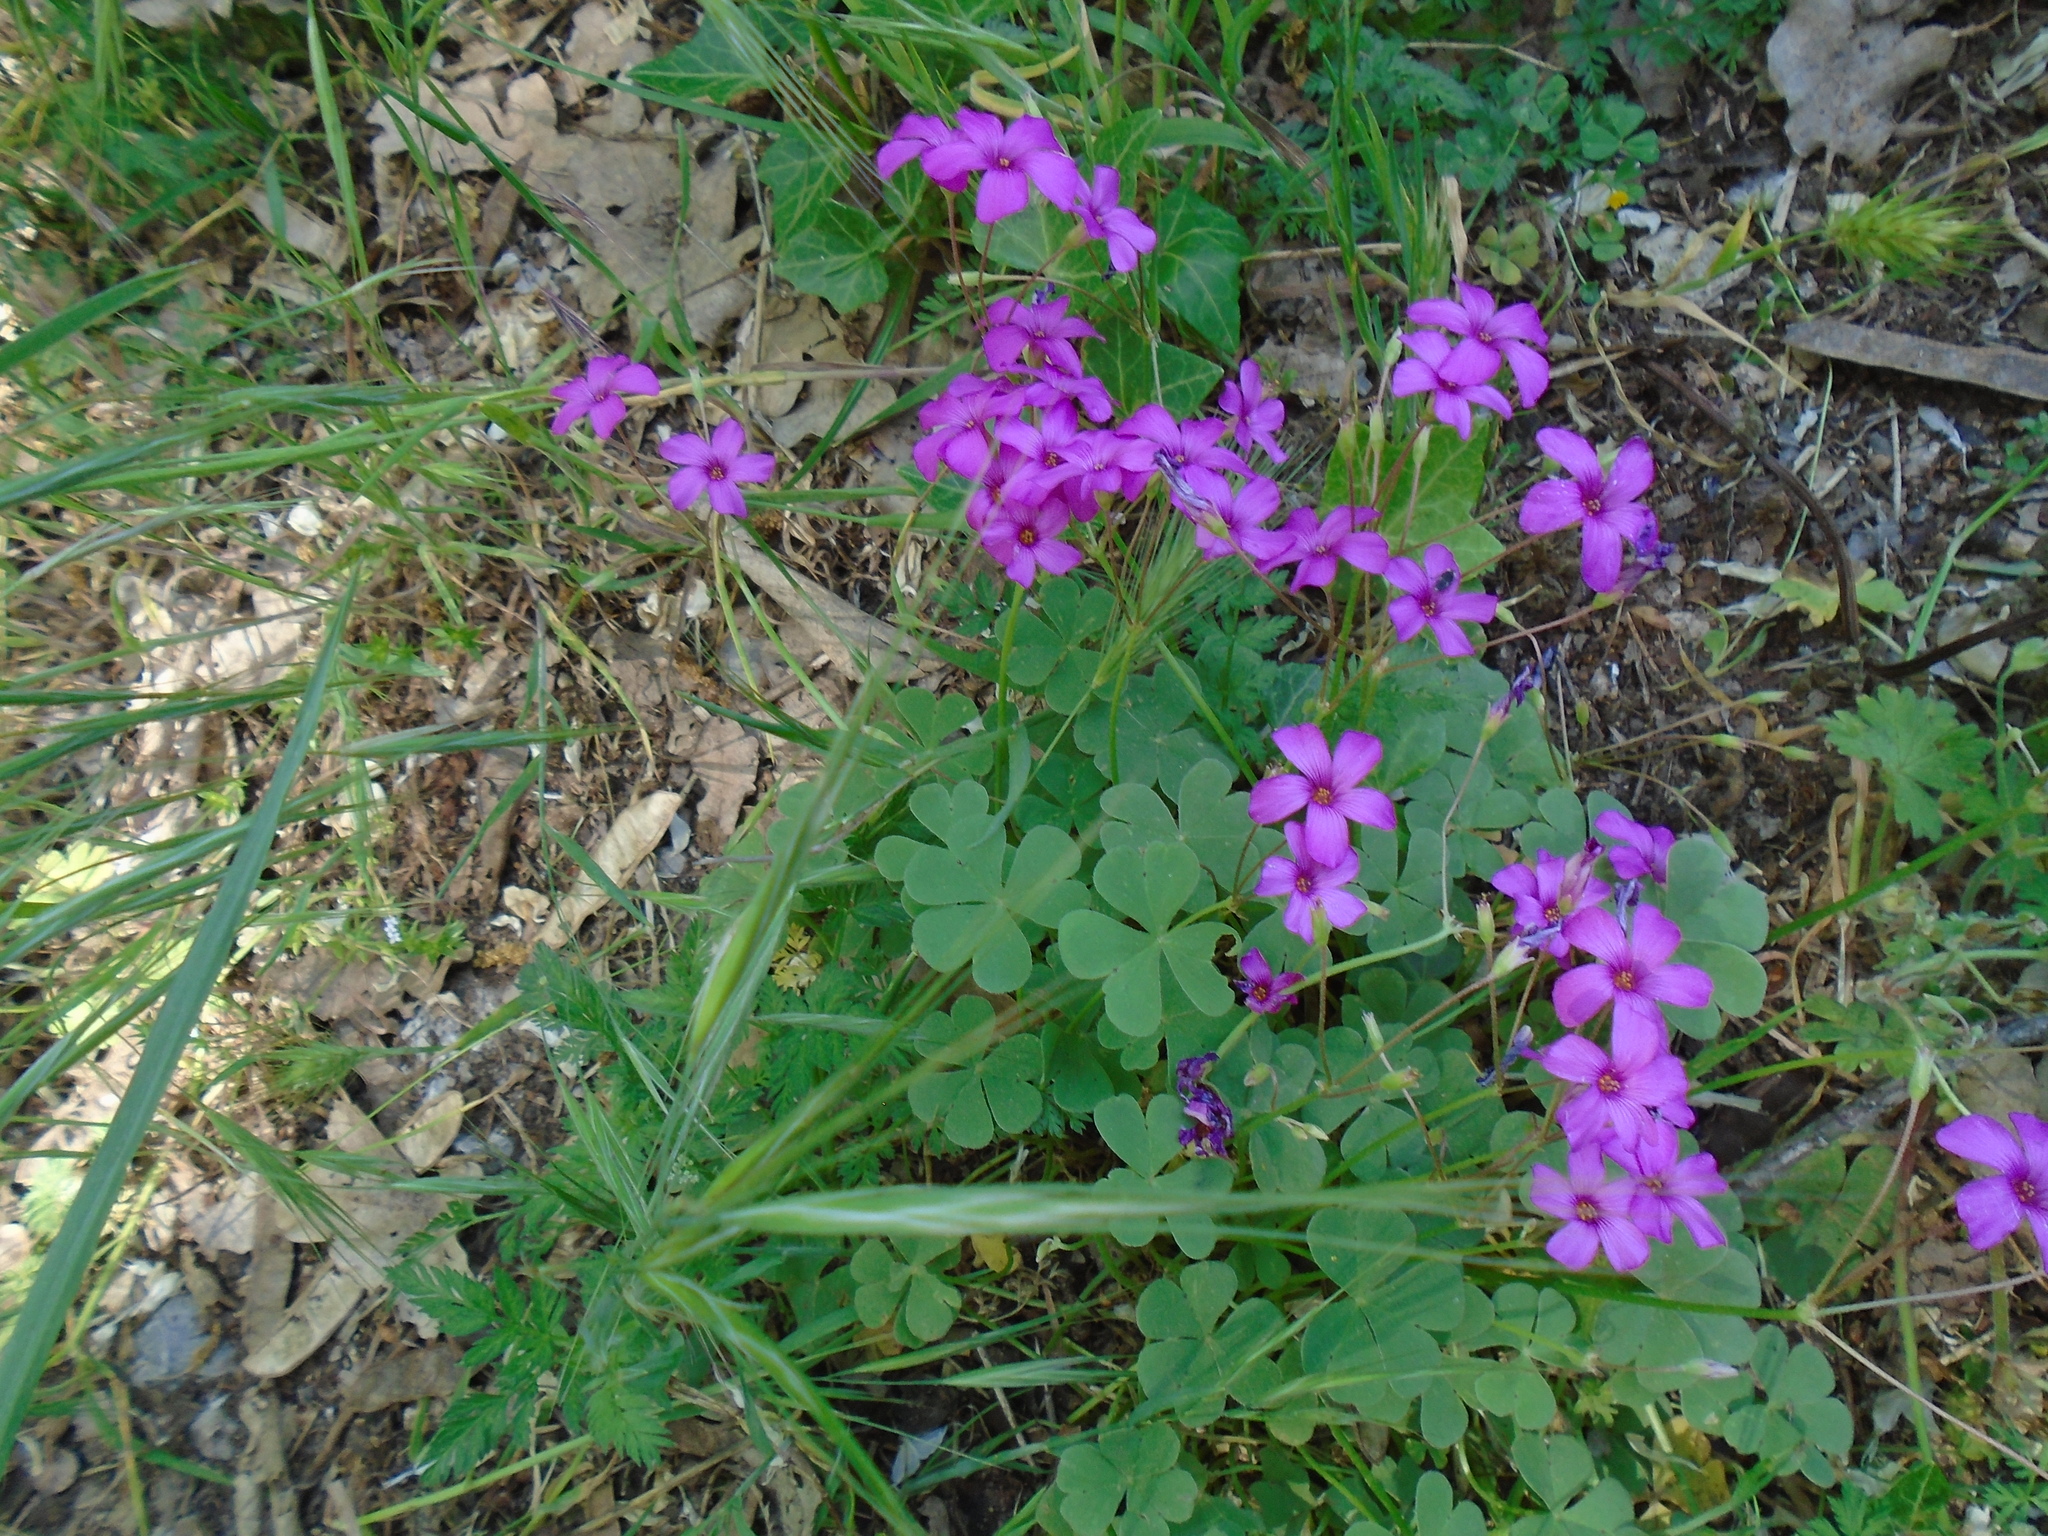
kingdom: Plantae
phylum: Tracheophyta
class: Magnoliopsida
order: Oxalidales
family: Oxalidaceae
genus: Oxalis
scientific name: Oxalis articulata
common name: Pink-sorrel
